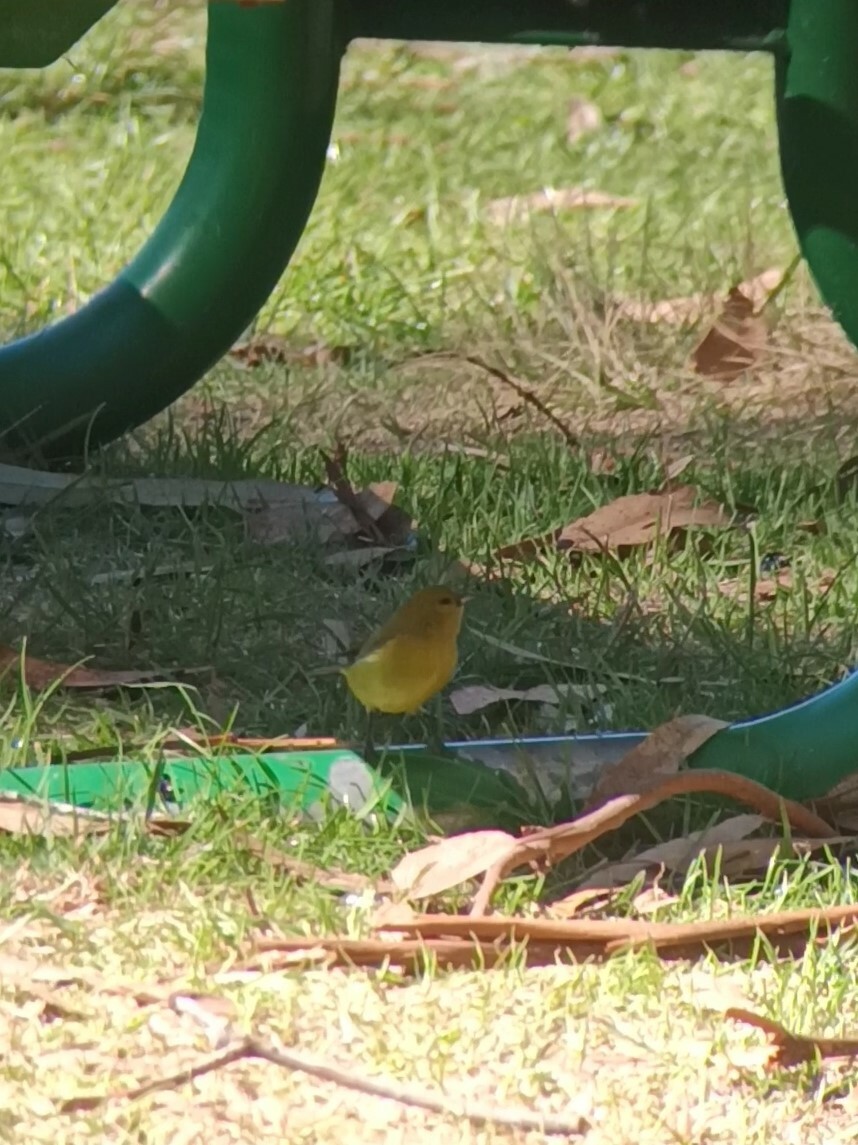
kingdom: Animalia
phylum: Chordata
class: Aves
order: Passeriformes
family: Fringillidae
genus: Chlorodrepanis
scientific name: Chlorodrepanis virens
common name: Hawaii amakihi
